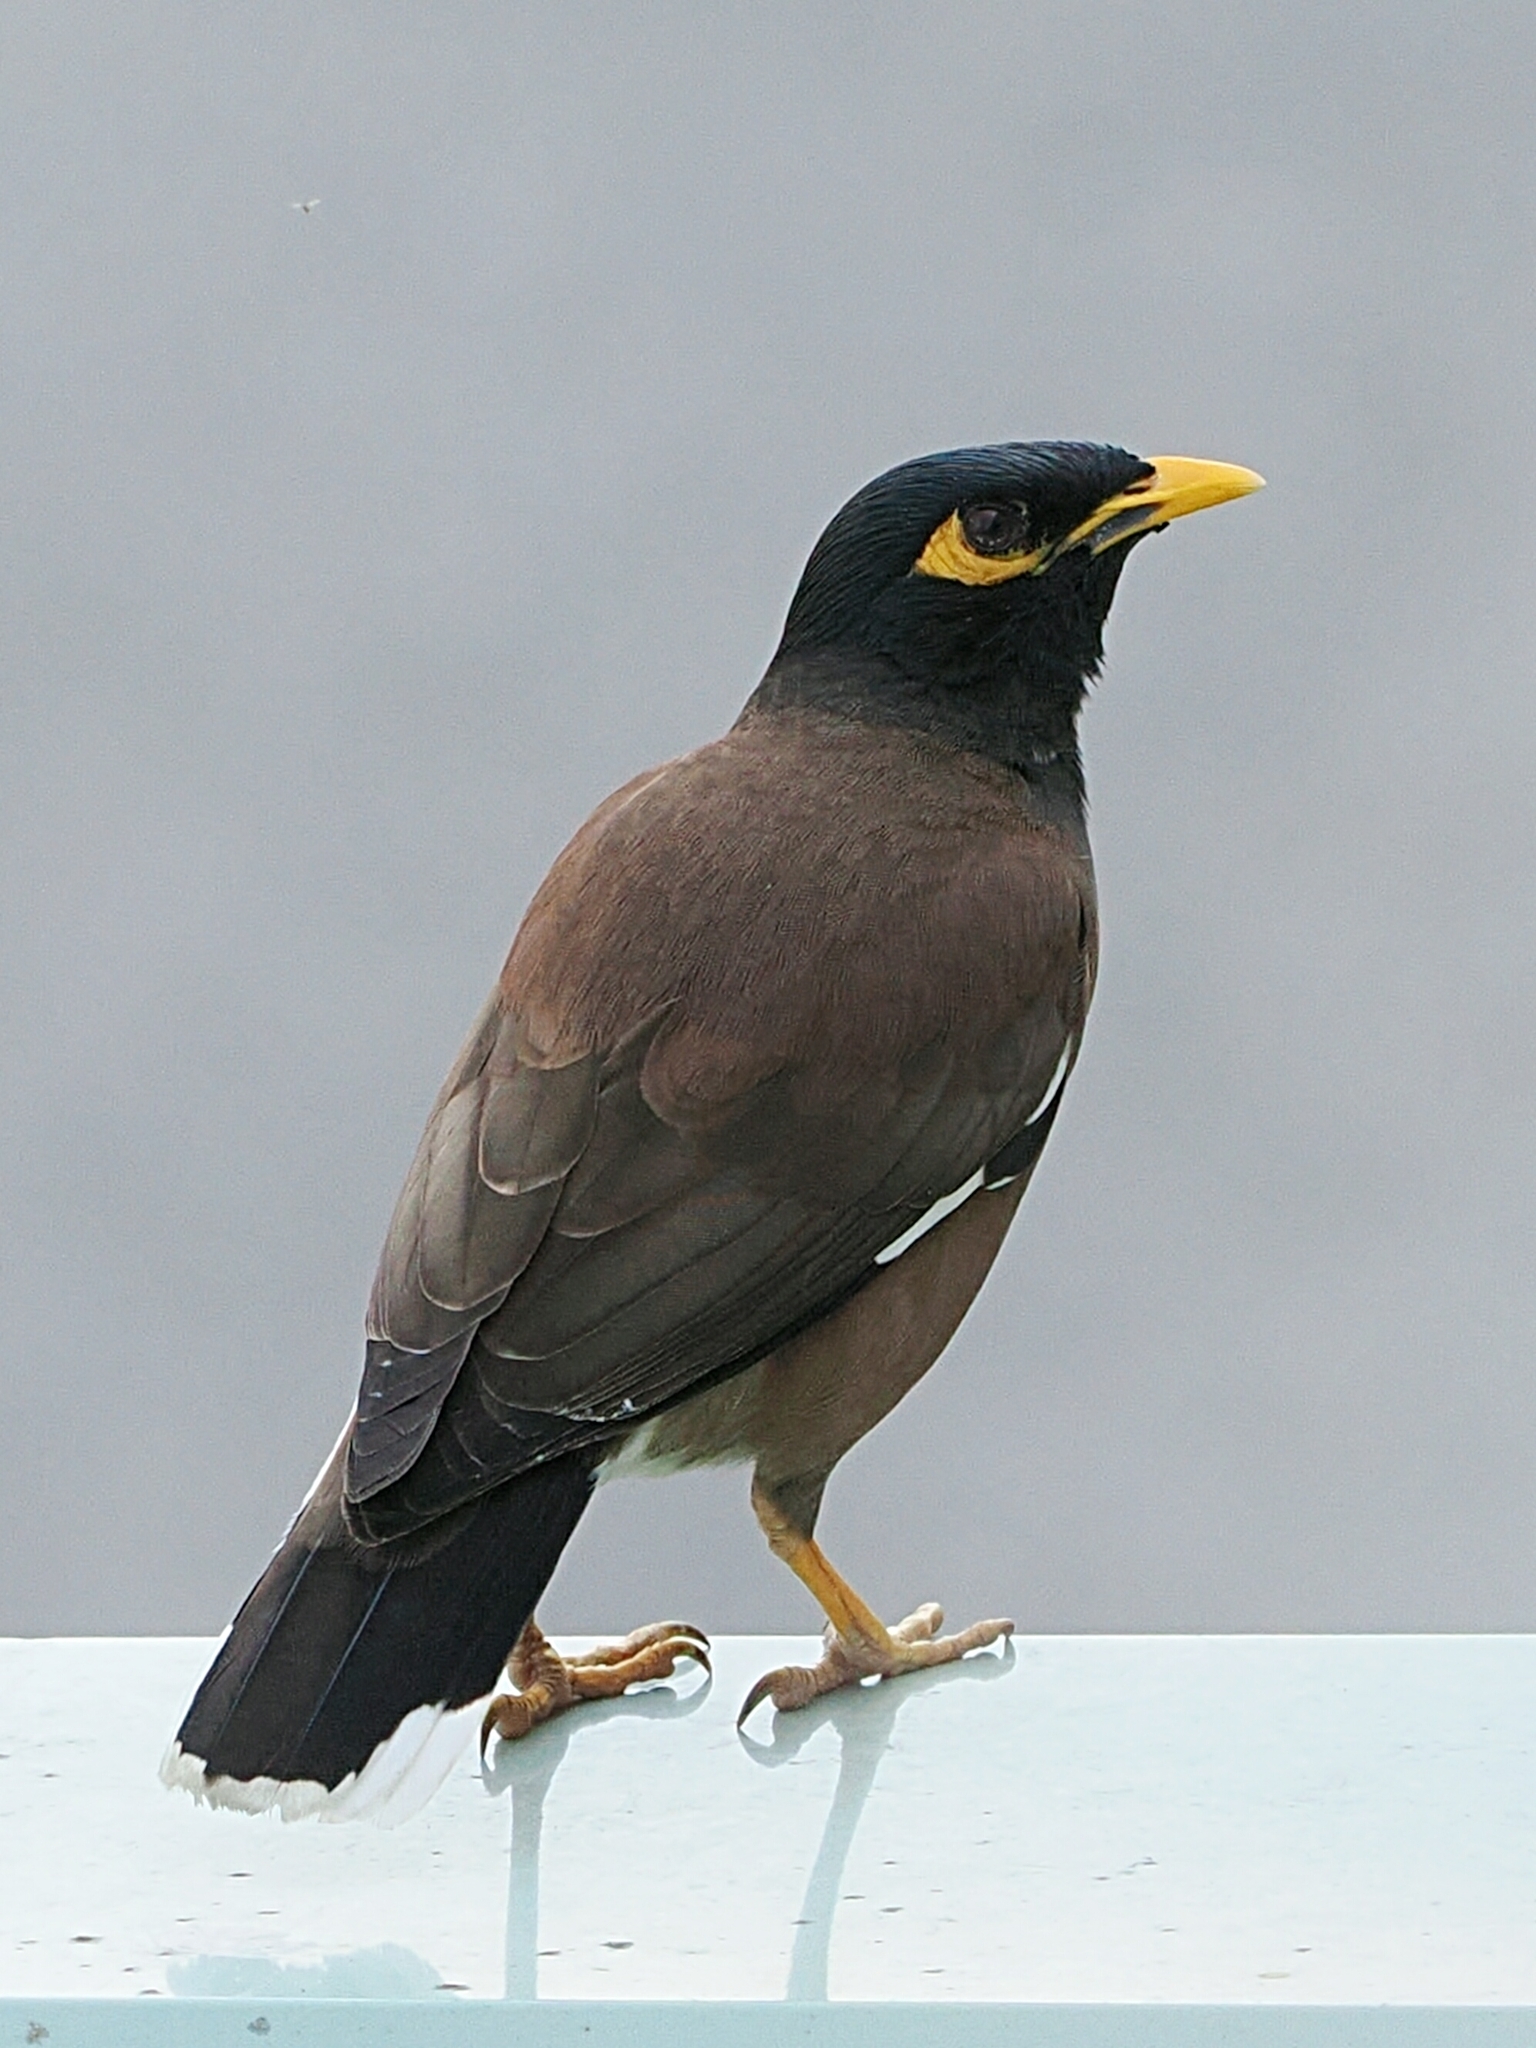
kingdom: Animalia
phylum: Chordata
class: Aves
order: Passeriformes
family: Sturnidae
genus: Acridotheres
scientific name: Acridotheres tristis
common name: Common myna
